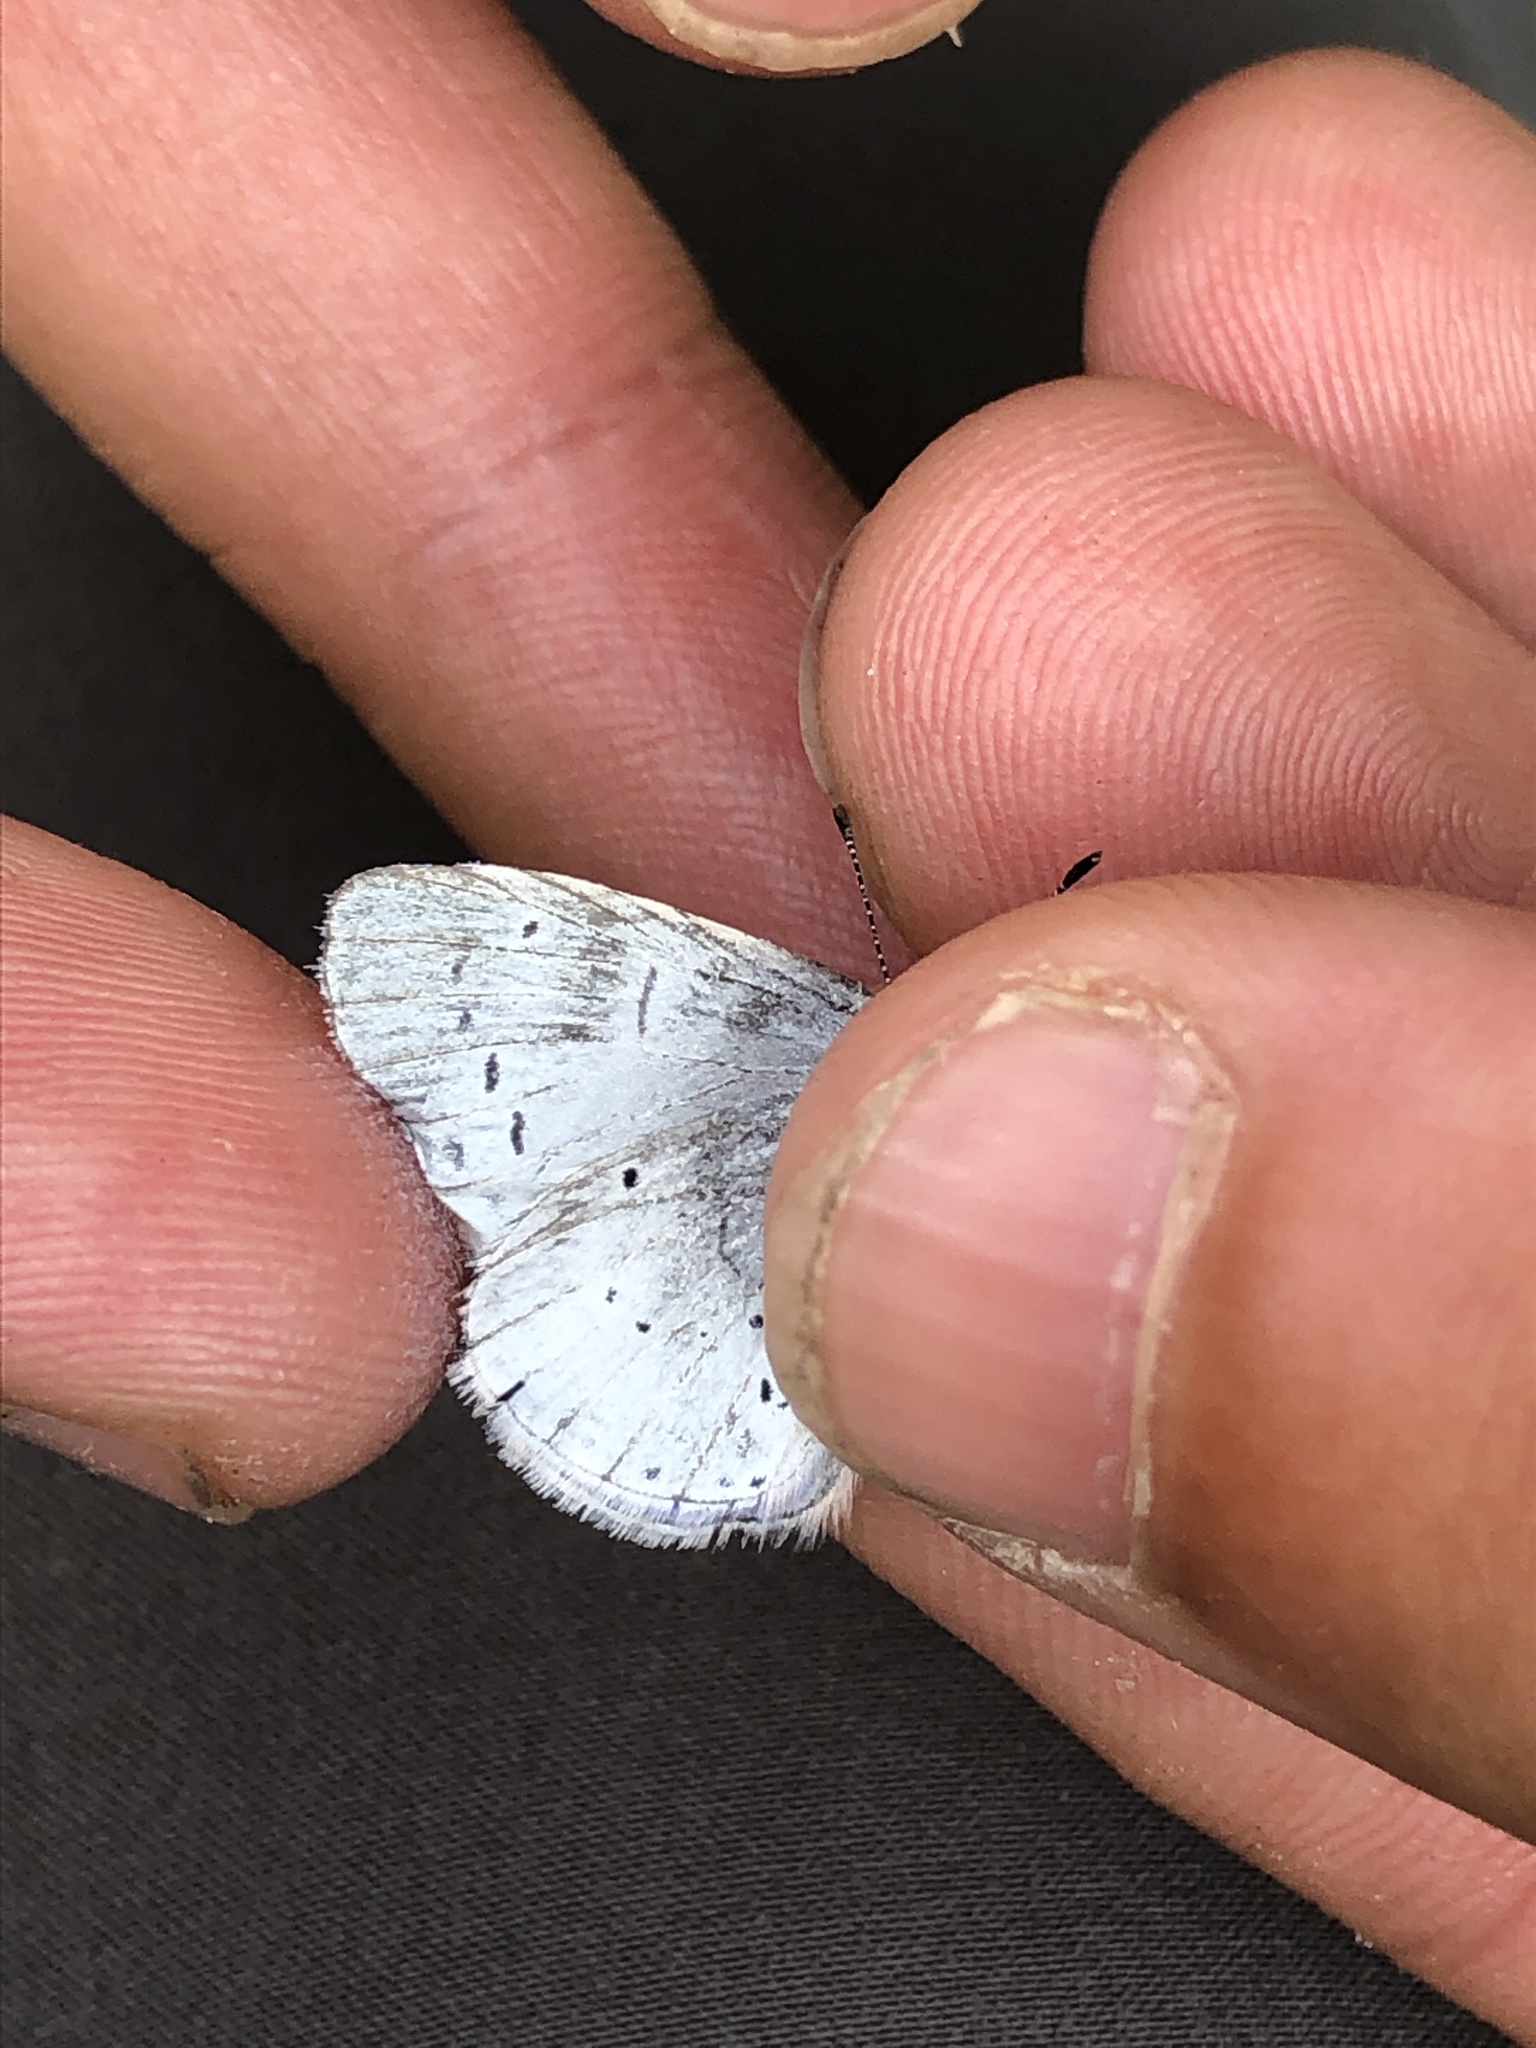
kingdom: Animalia
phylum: Arthropoda
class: Insecta
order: Lepidoptera
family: Lycaenidae
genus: Celastrina
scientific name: Celastrina argiolus
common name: Holly blue
